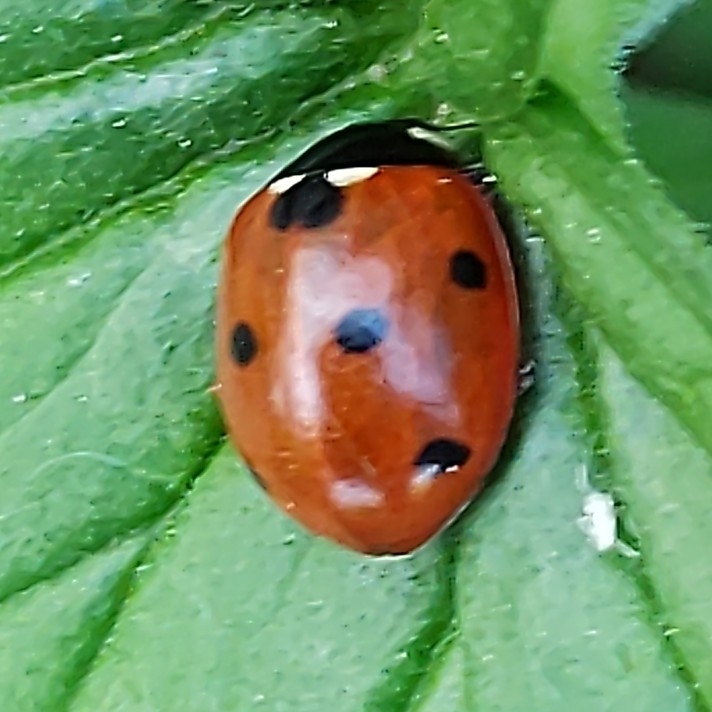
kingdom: Animalia
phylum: Arthropoda
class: Insecta
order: Coleoptera
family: Coccinellidae
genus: Coccinella
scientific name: Coccinella septempunctata
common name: Sevenspotted lady beetle
